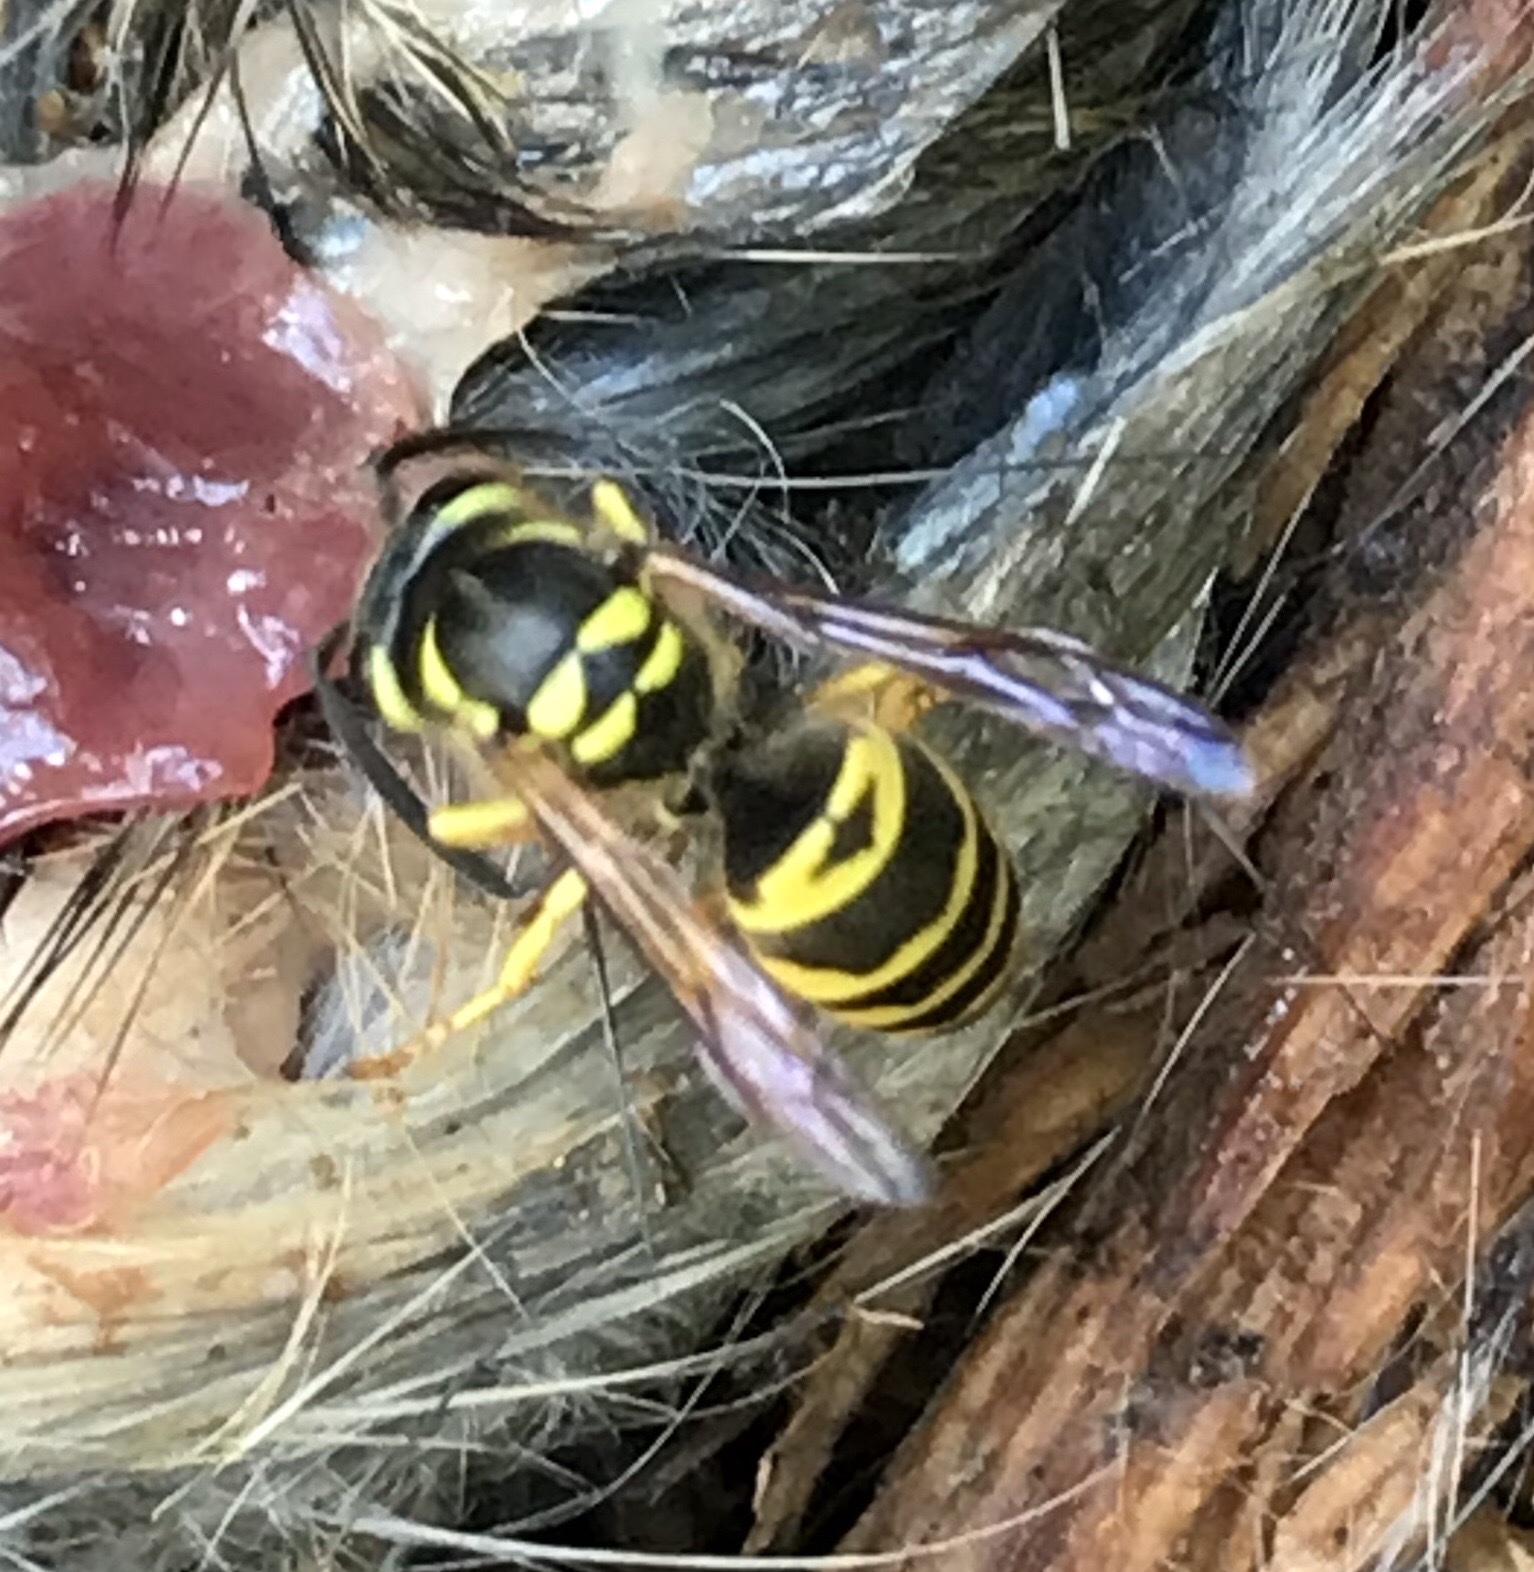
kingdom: Animalia
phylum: Arthropoda
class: Insecta
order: Hymenoptera
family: Vespidae
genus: Vespula
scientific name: Vespula maculifrons
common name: Eastern yellowjacket
